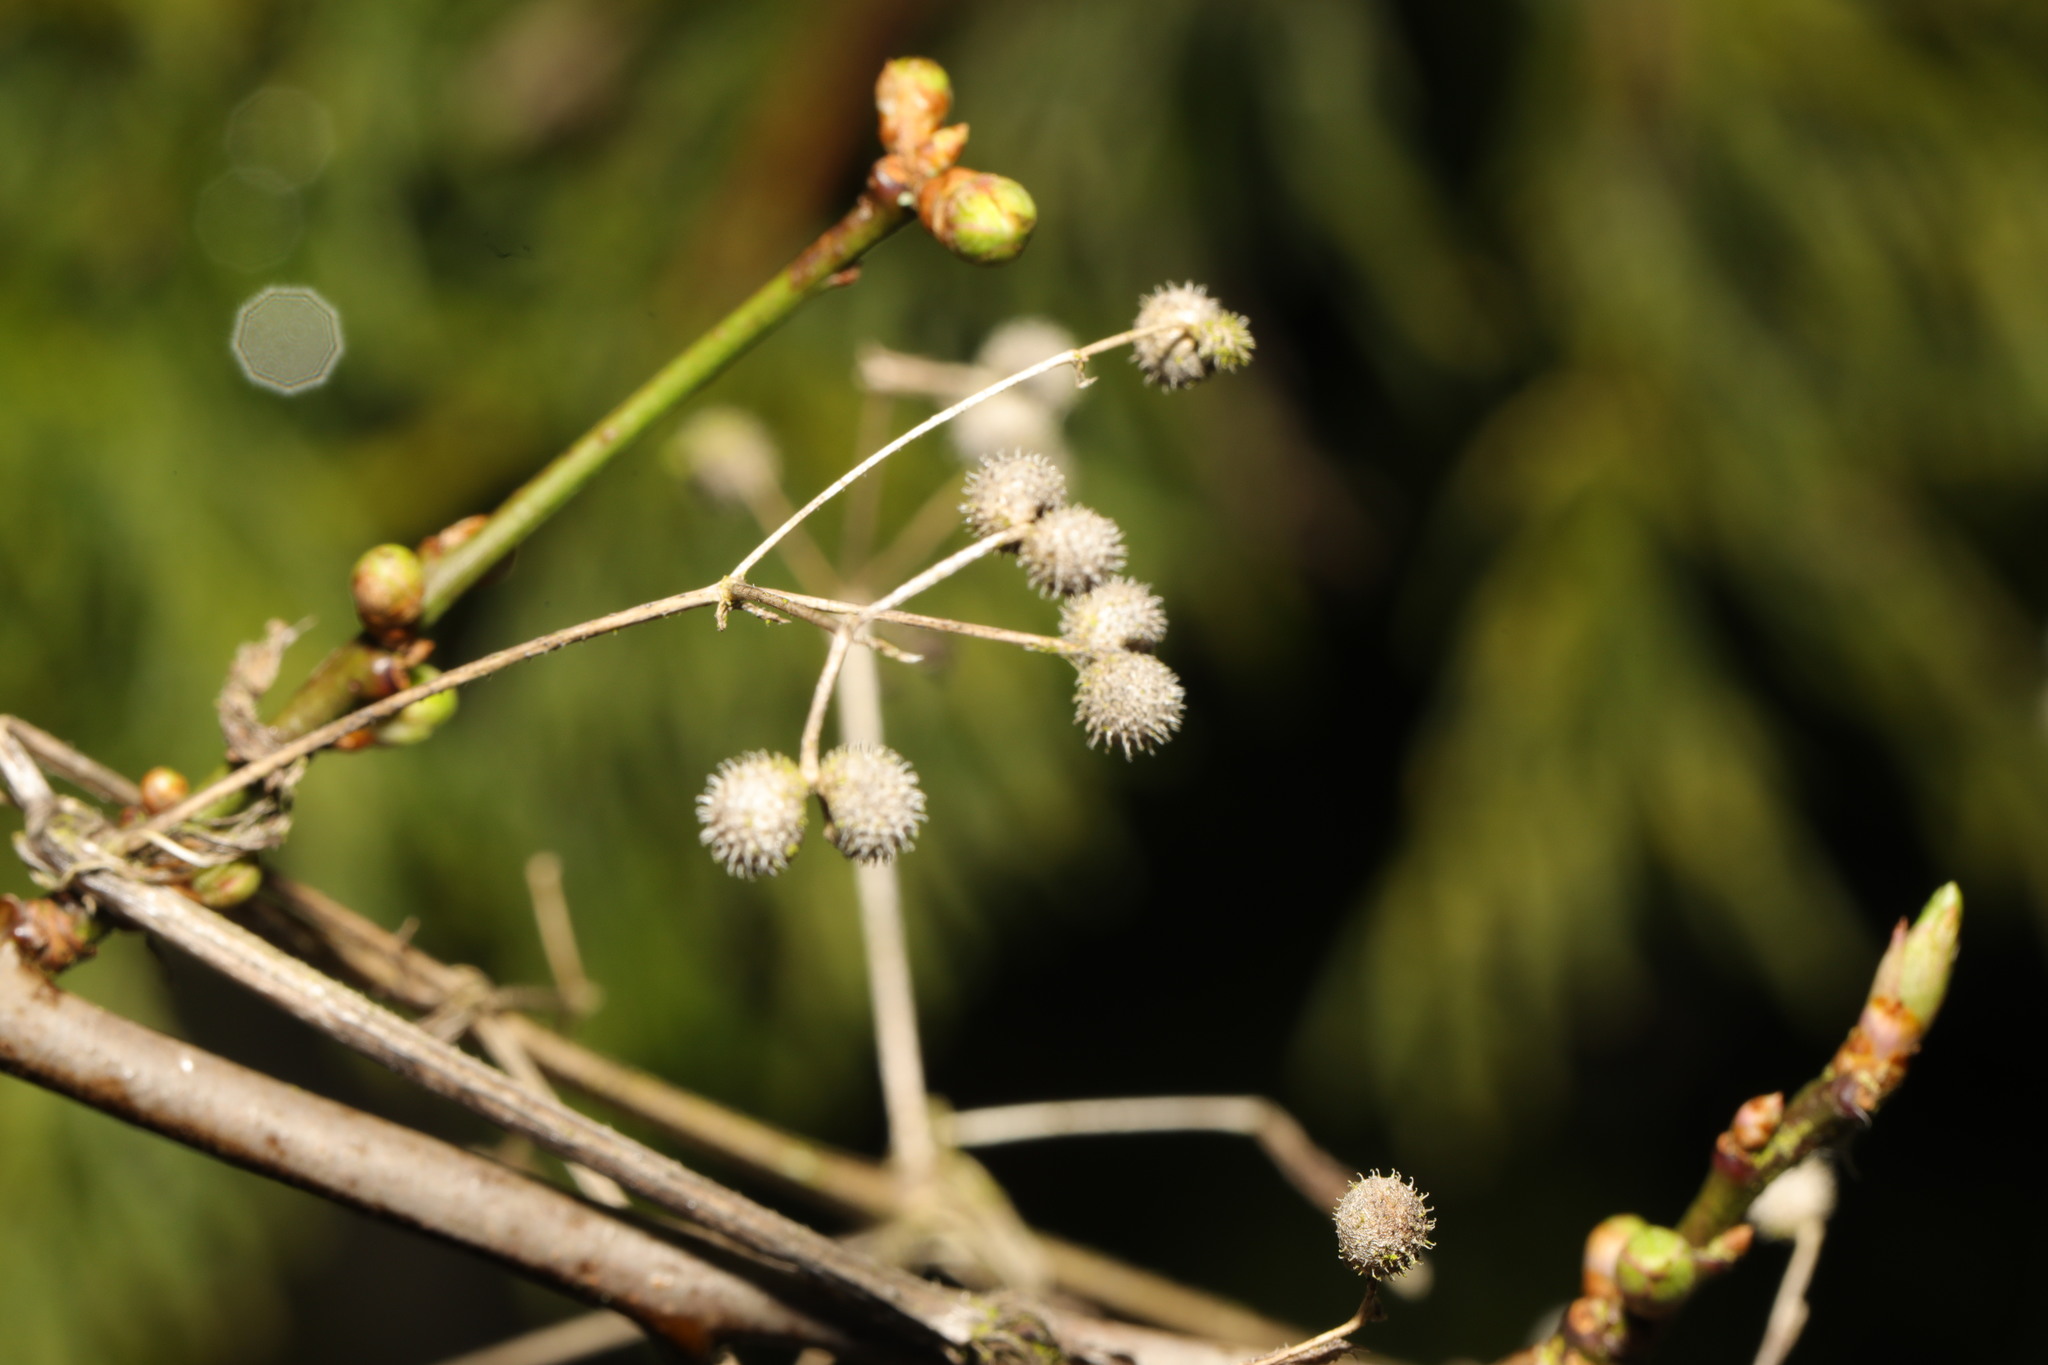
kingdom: Plantae
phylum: Tracheophyta
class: Magnoliopsida
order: Gentianales
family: Rubiaceae
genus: Galium
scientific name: Galium aparine
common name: Cleavers
